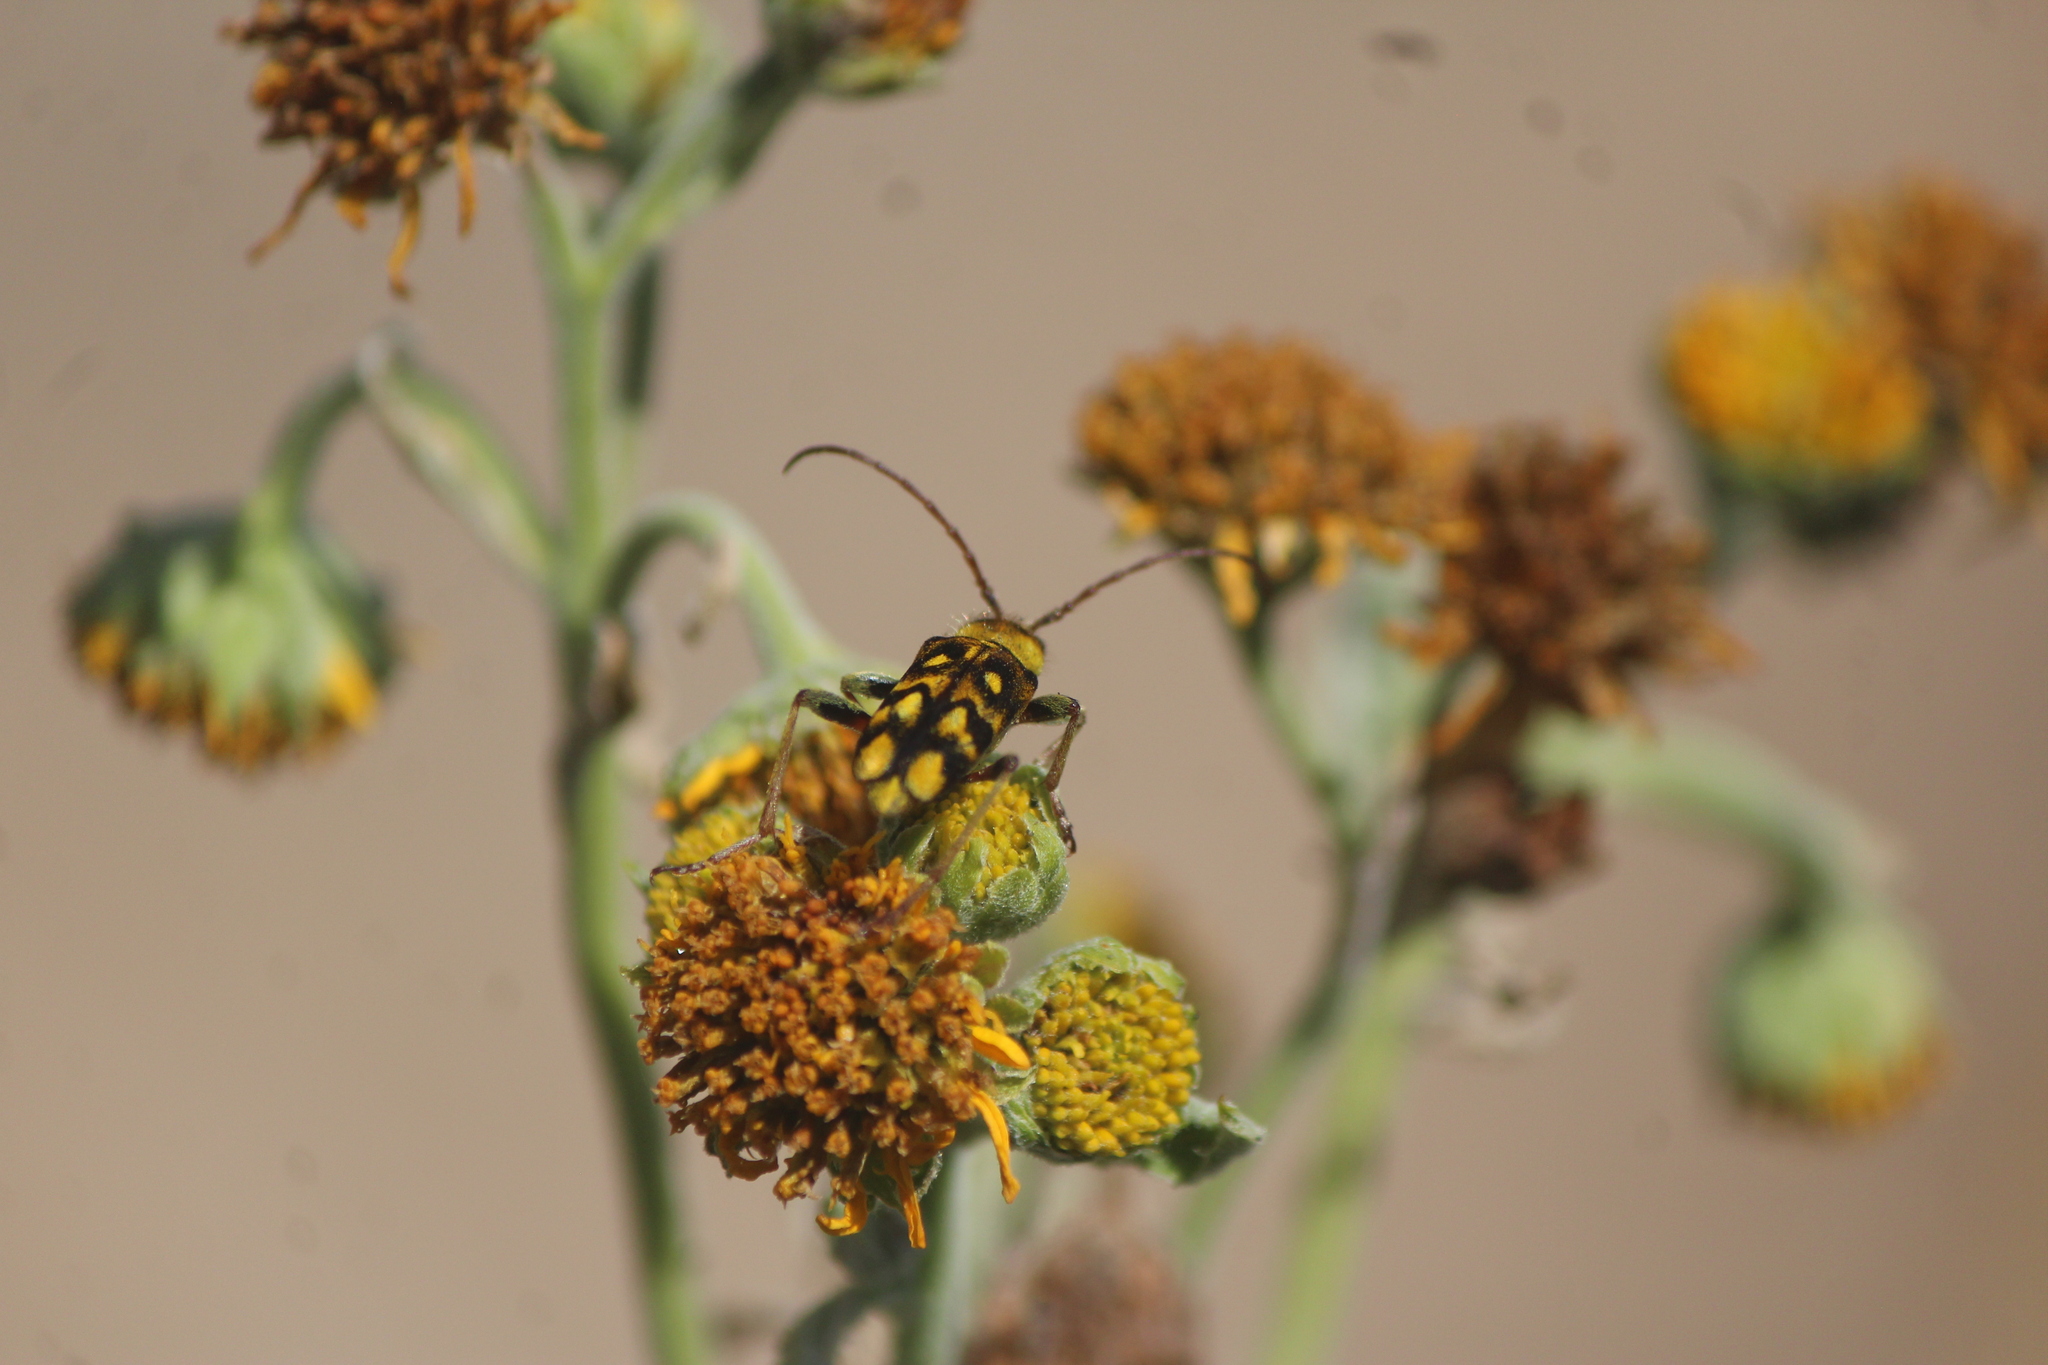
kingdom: Animalia
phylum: Arthropoda
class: Insecta
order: Coleoptera
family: Cerambycidae
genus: Ochraethes
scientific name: Ochraethes sommeri
